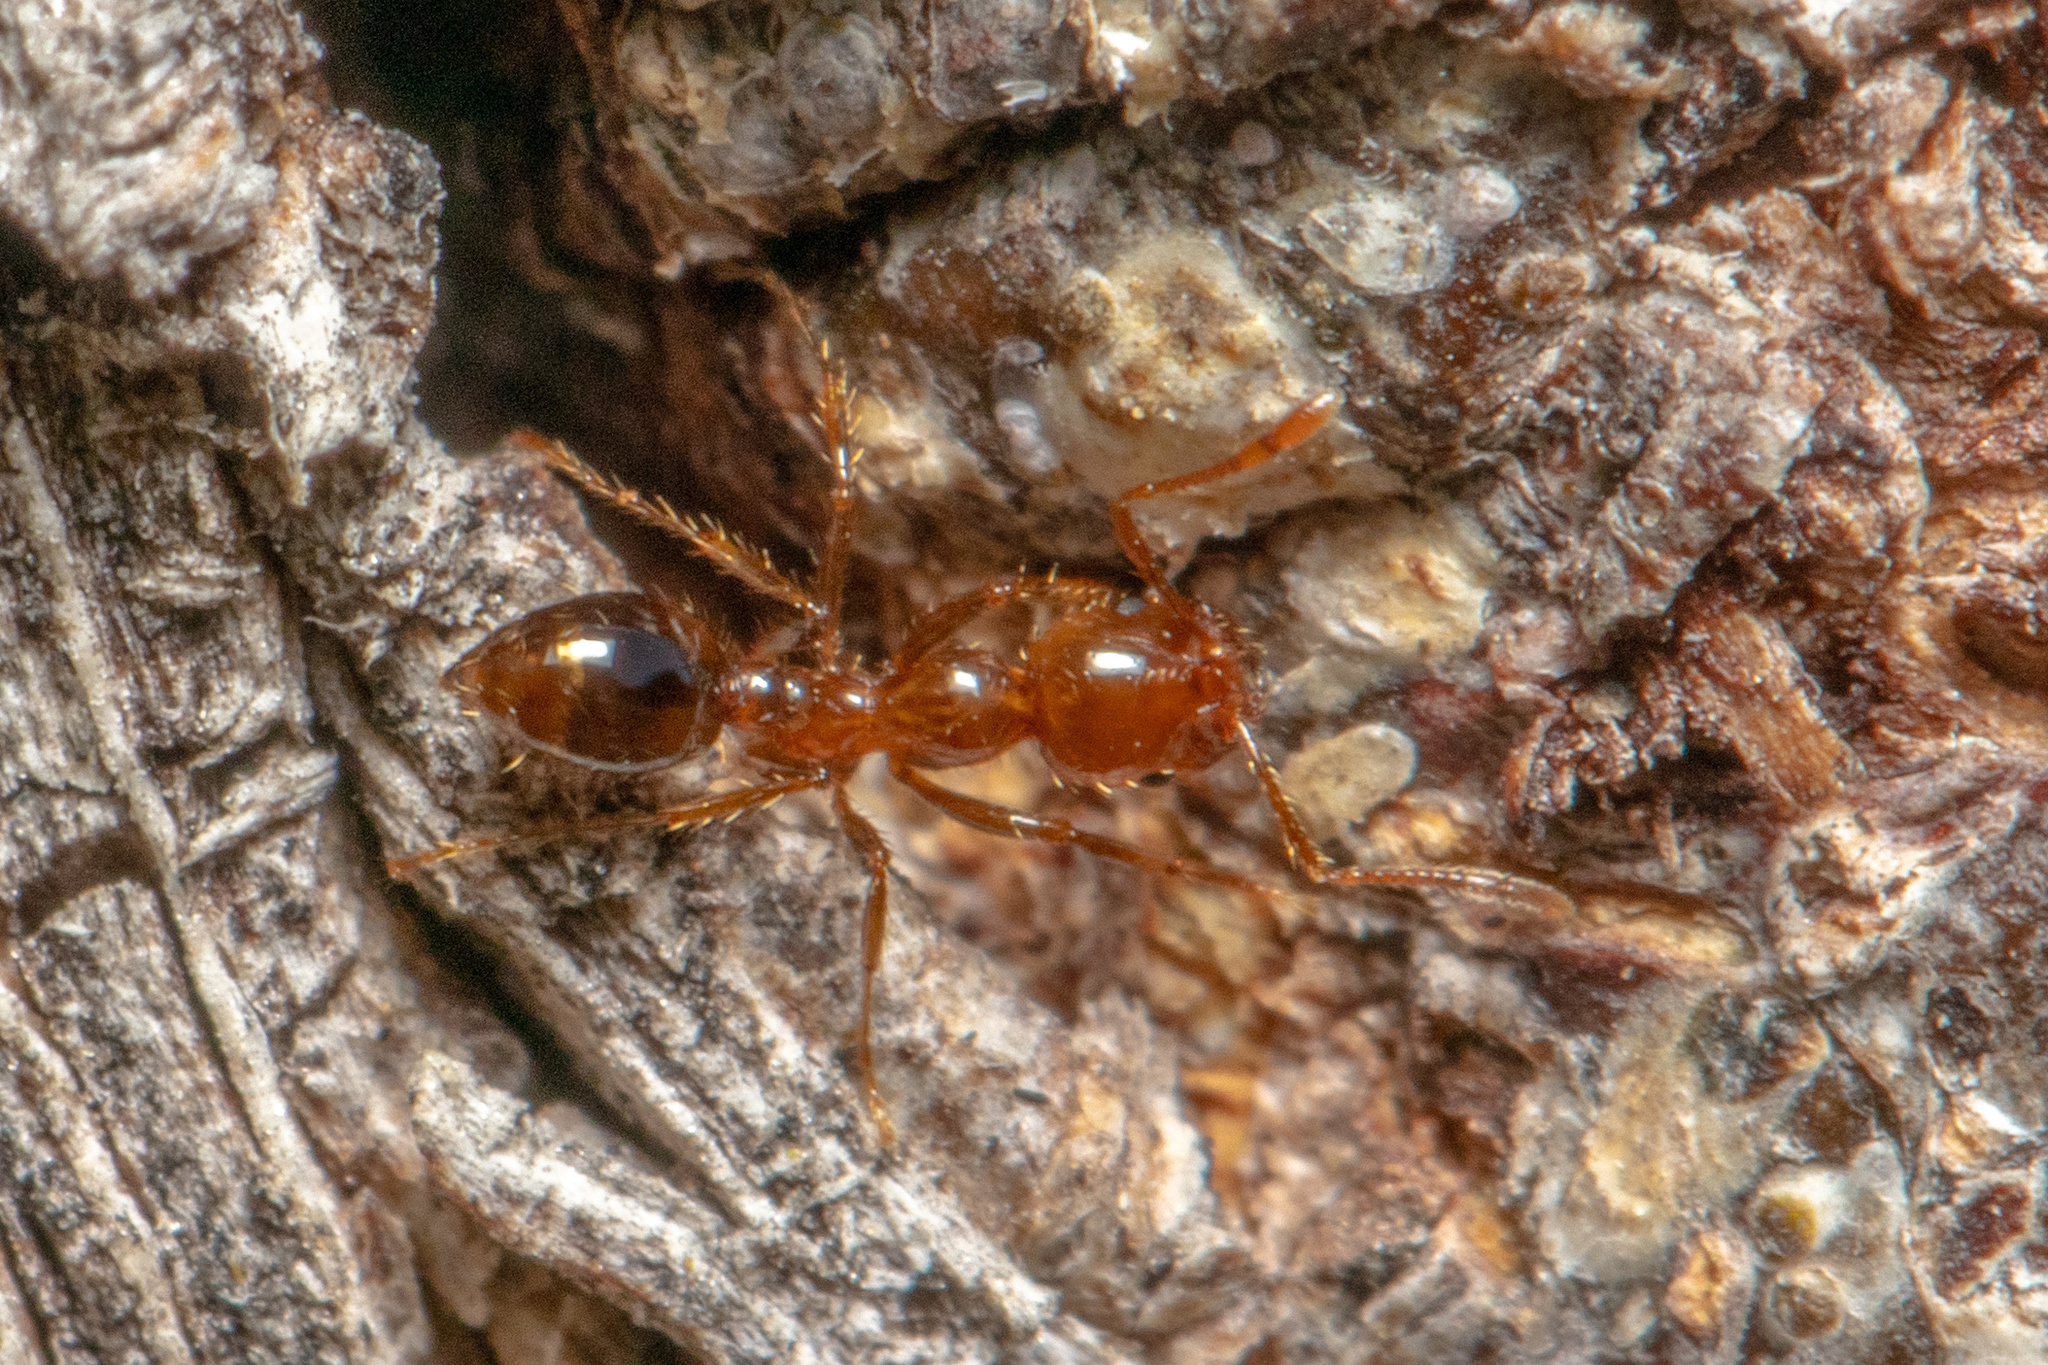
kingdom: Animalia
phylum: Arthropoda
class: Insecta
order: Hymenoptera
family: Formicidae
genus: Solenopsis
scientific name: Solenopsis invicta
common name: Red imported fire ant
